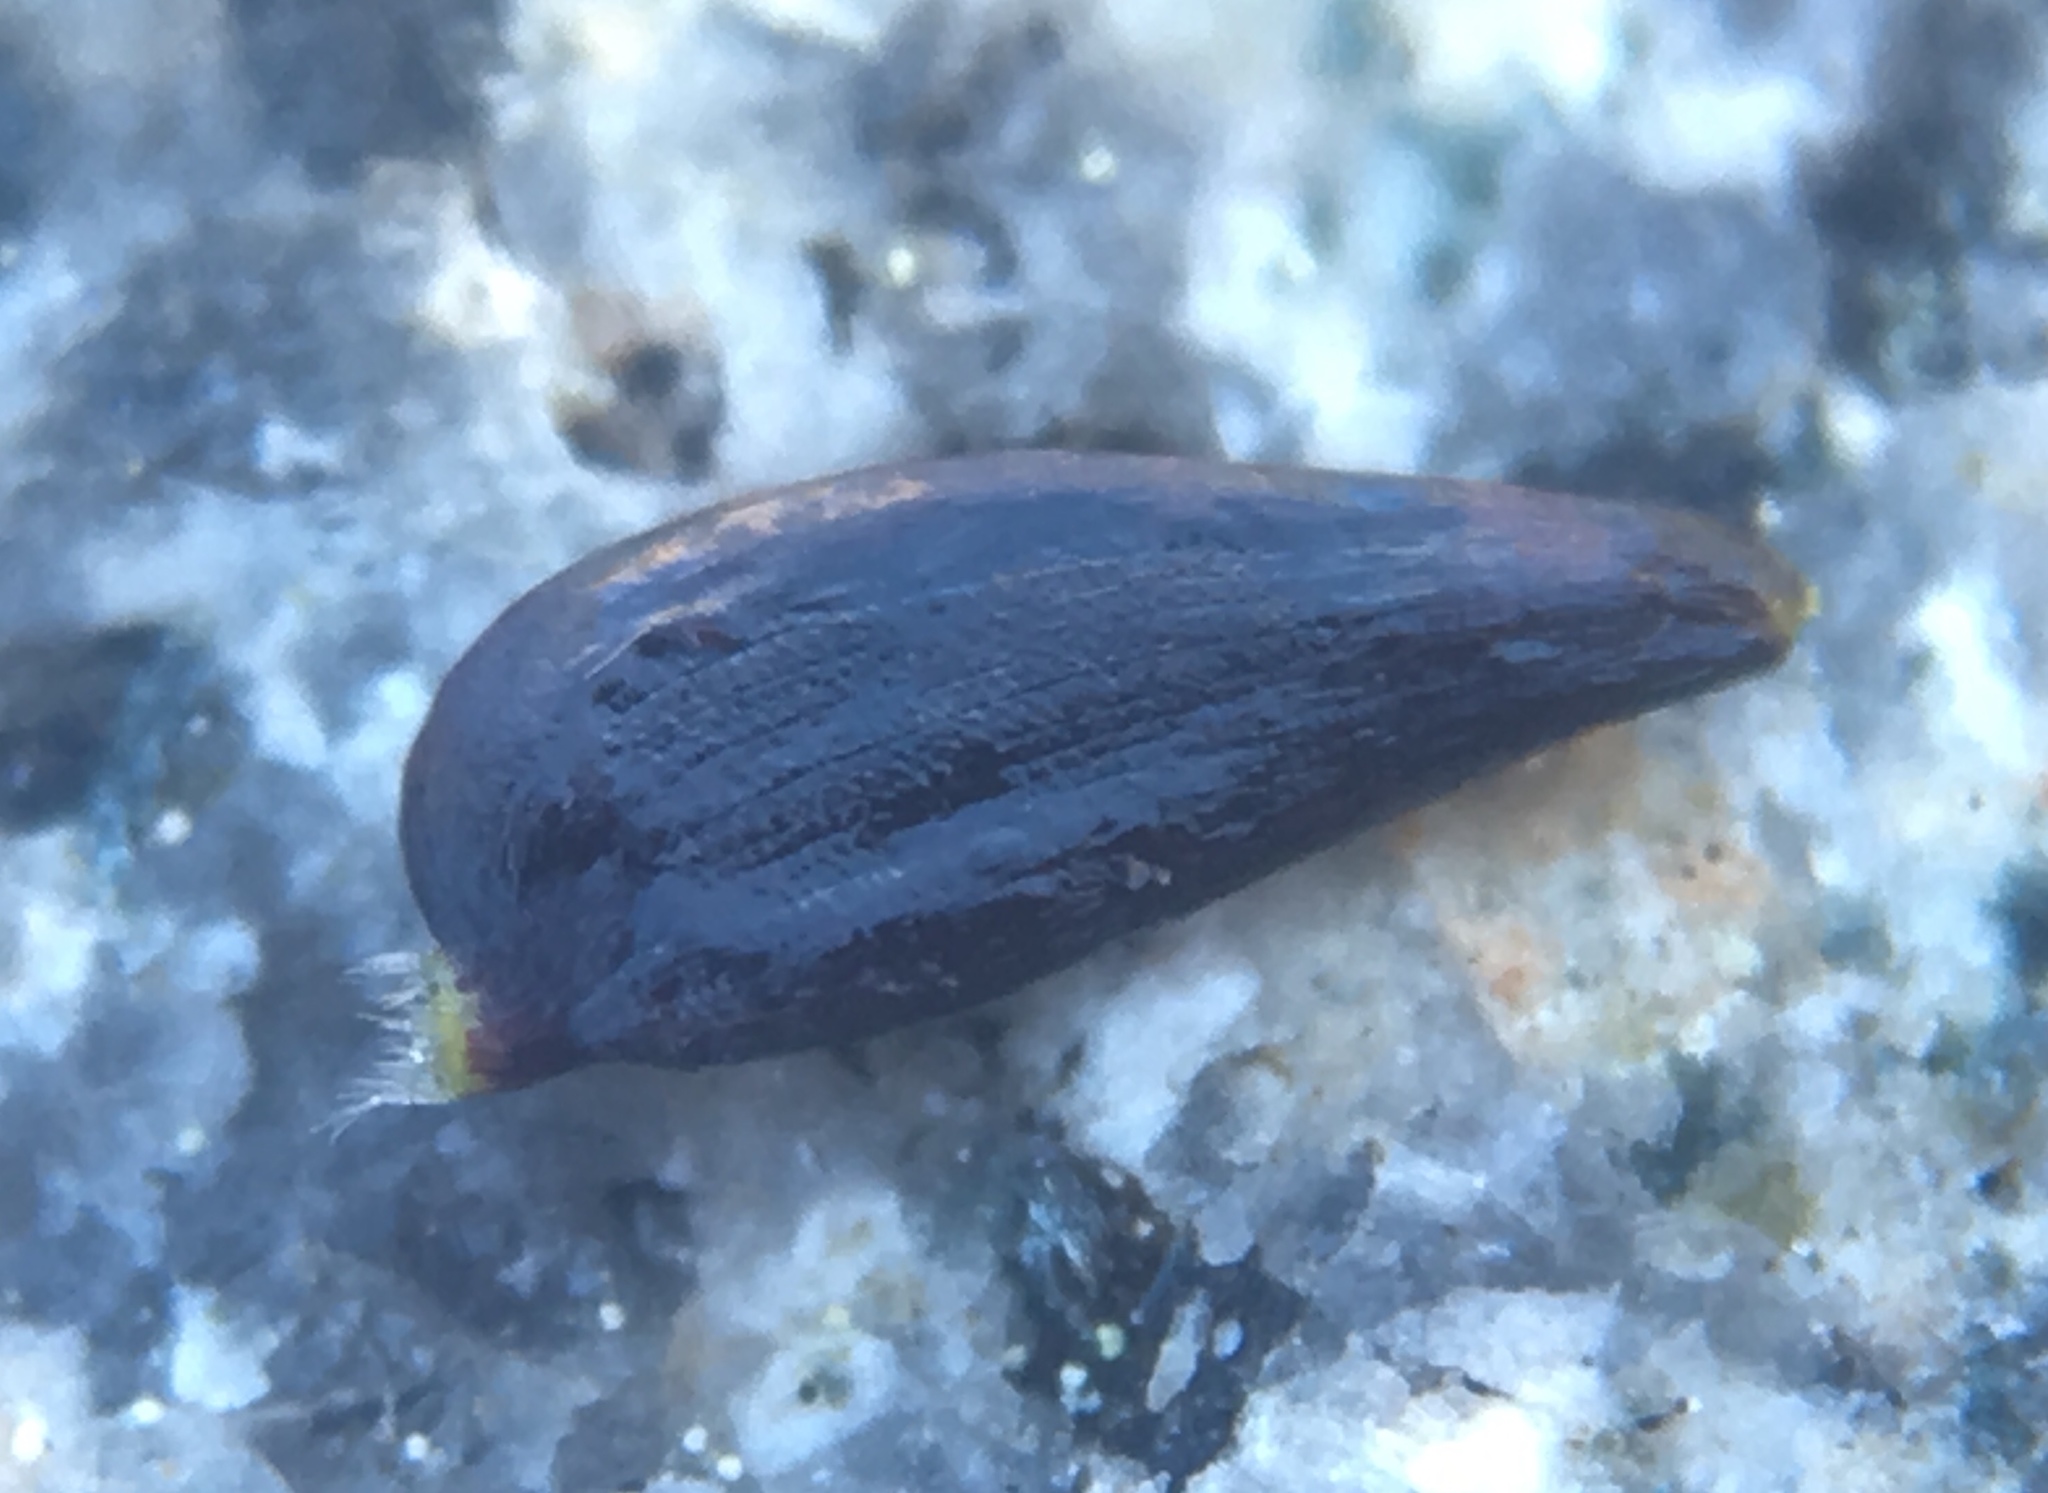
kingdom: Plantae
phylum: Tracheophyta
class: Magnoliopsida
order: Asterales
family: Asteraceae
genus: Jensia
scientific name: Jensia yosemitana
